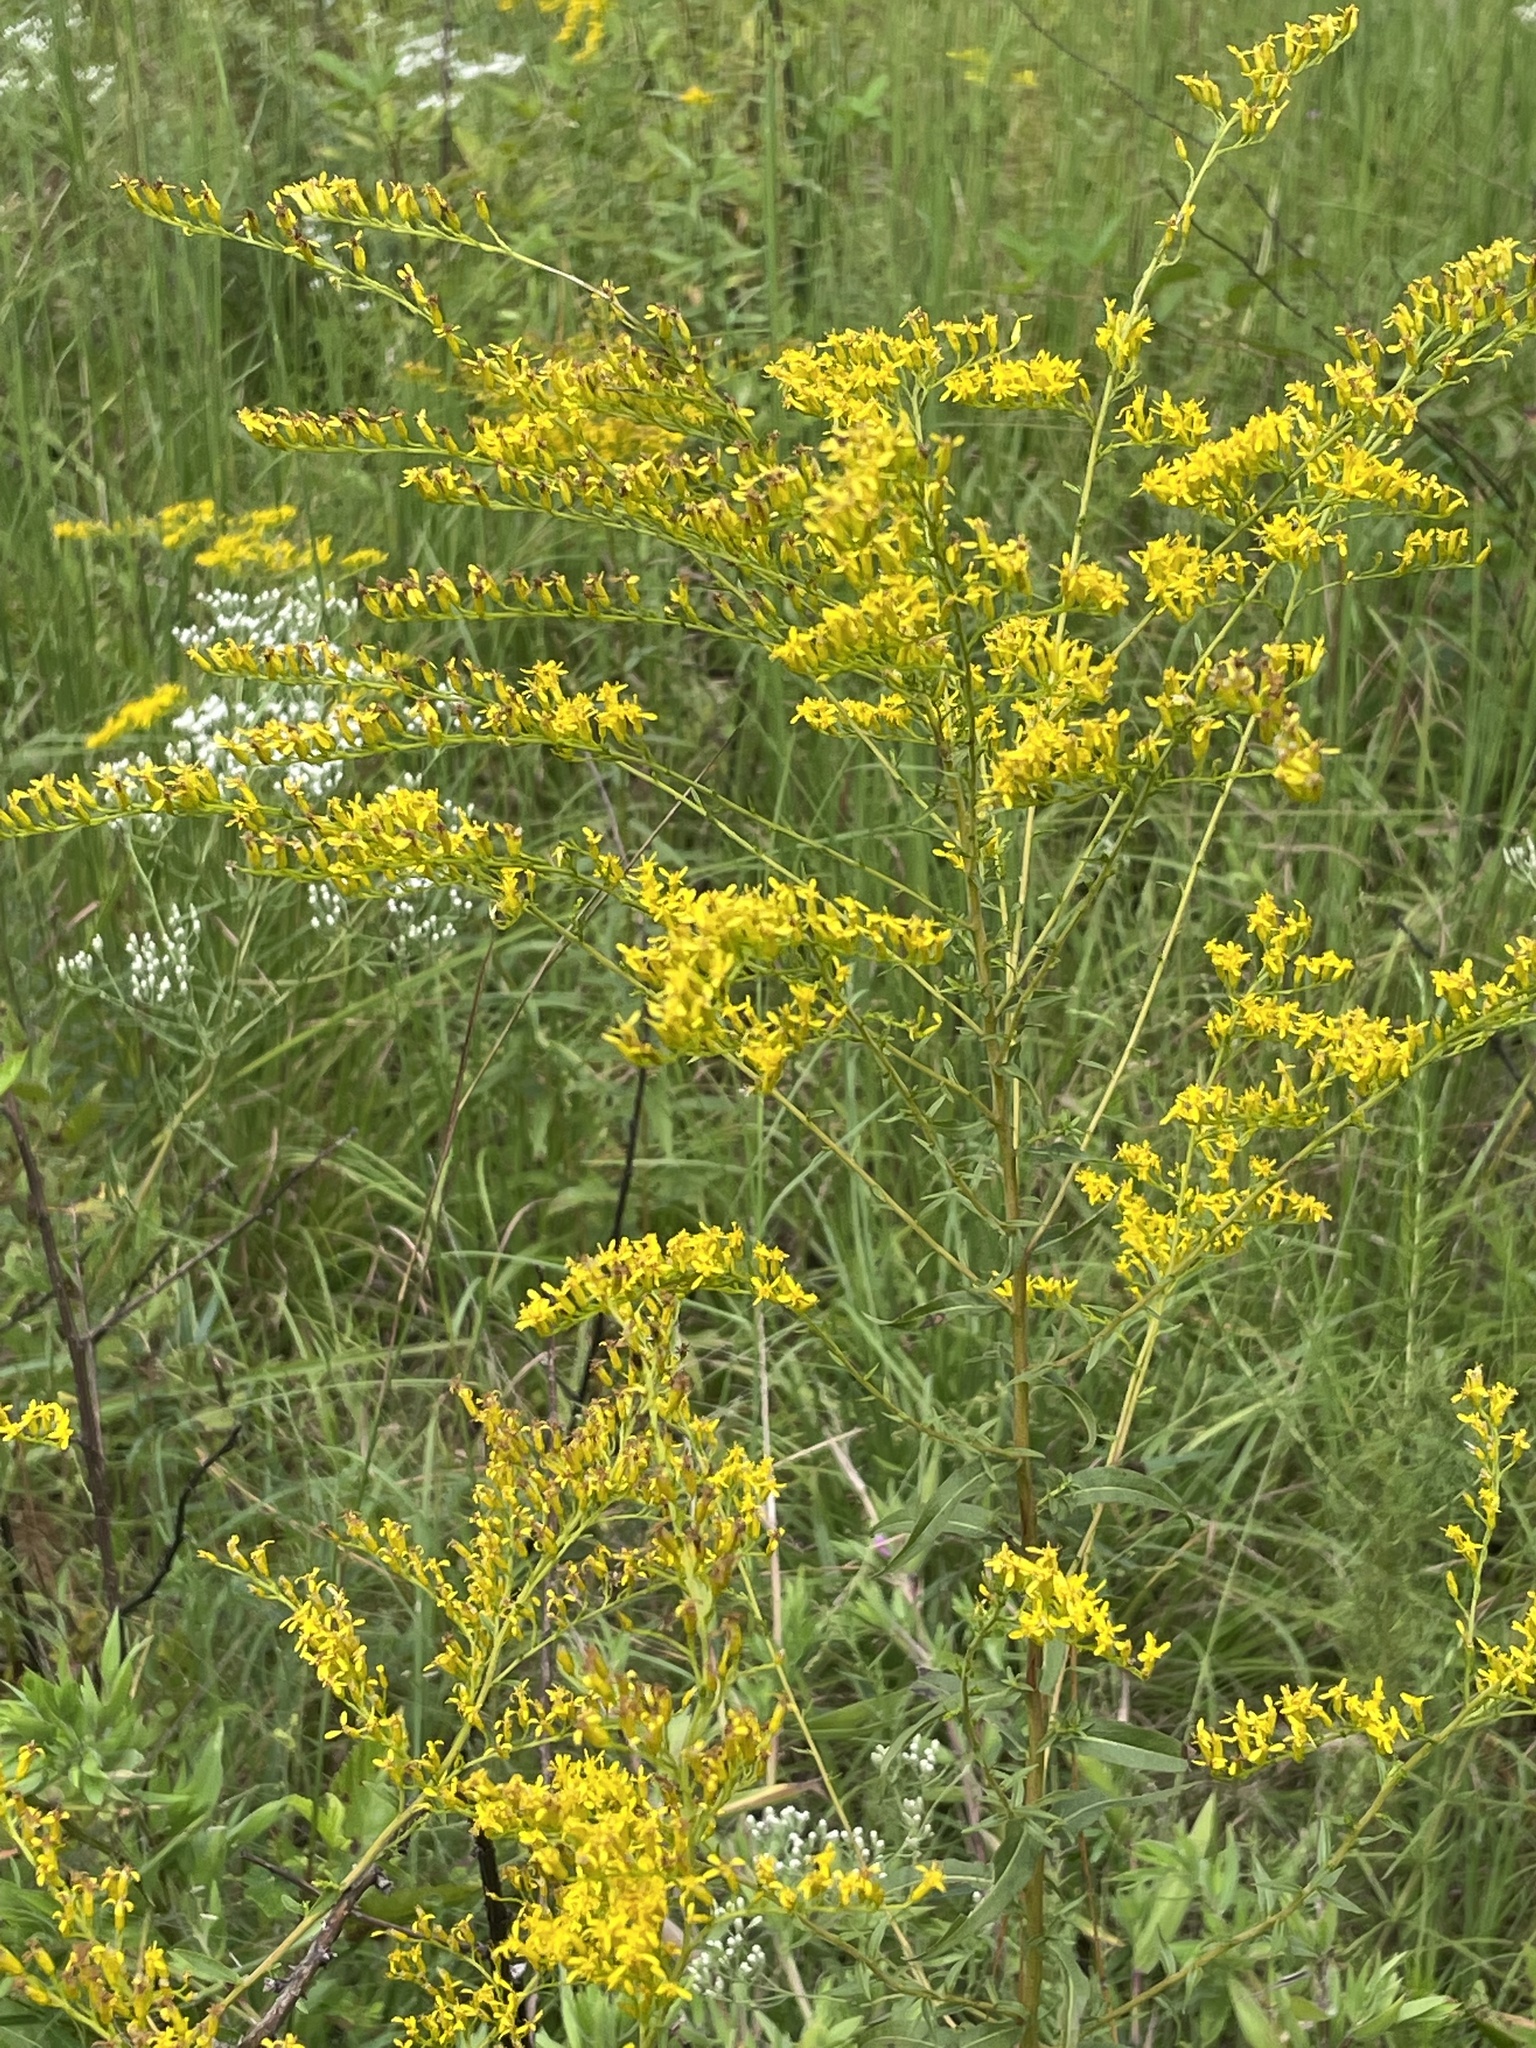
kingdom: Plantae
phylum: Tracheophyta
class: Magnoliopsida
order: Asterales
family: Asteraceae
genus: Solidago
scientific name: Solidago odora
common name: Anise-scented goldenrod
